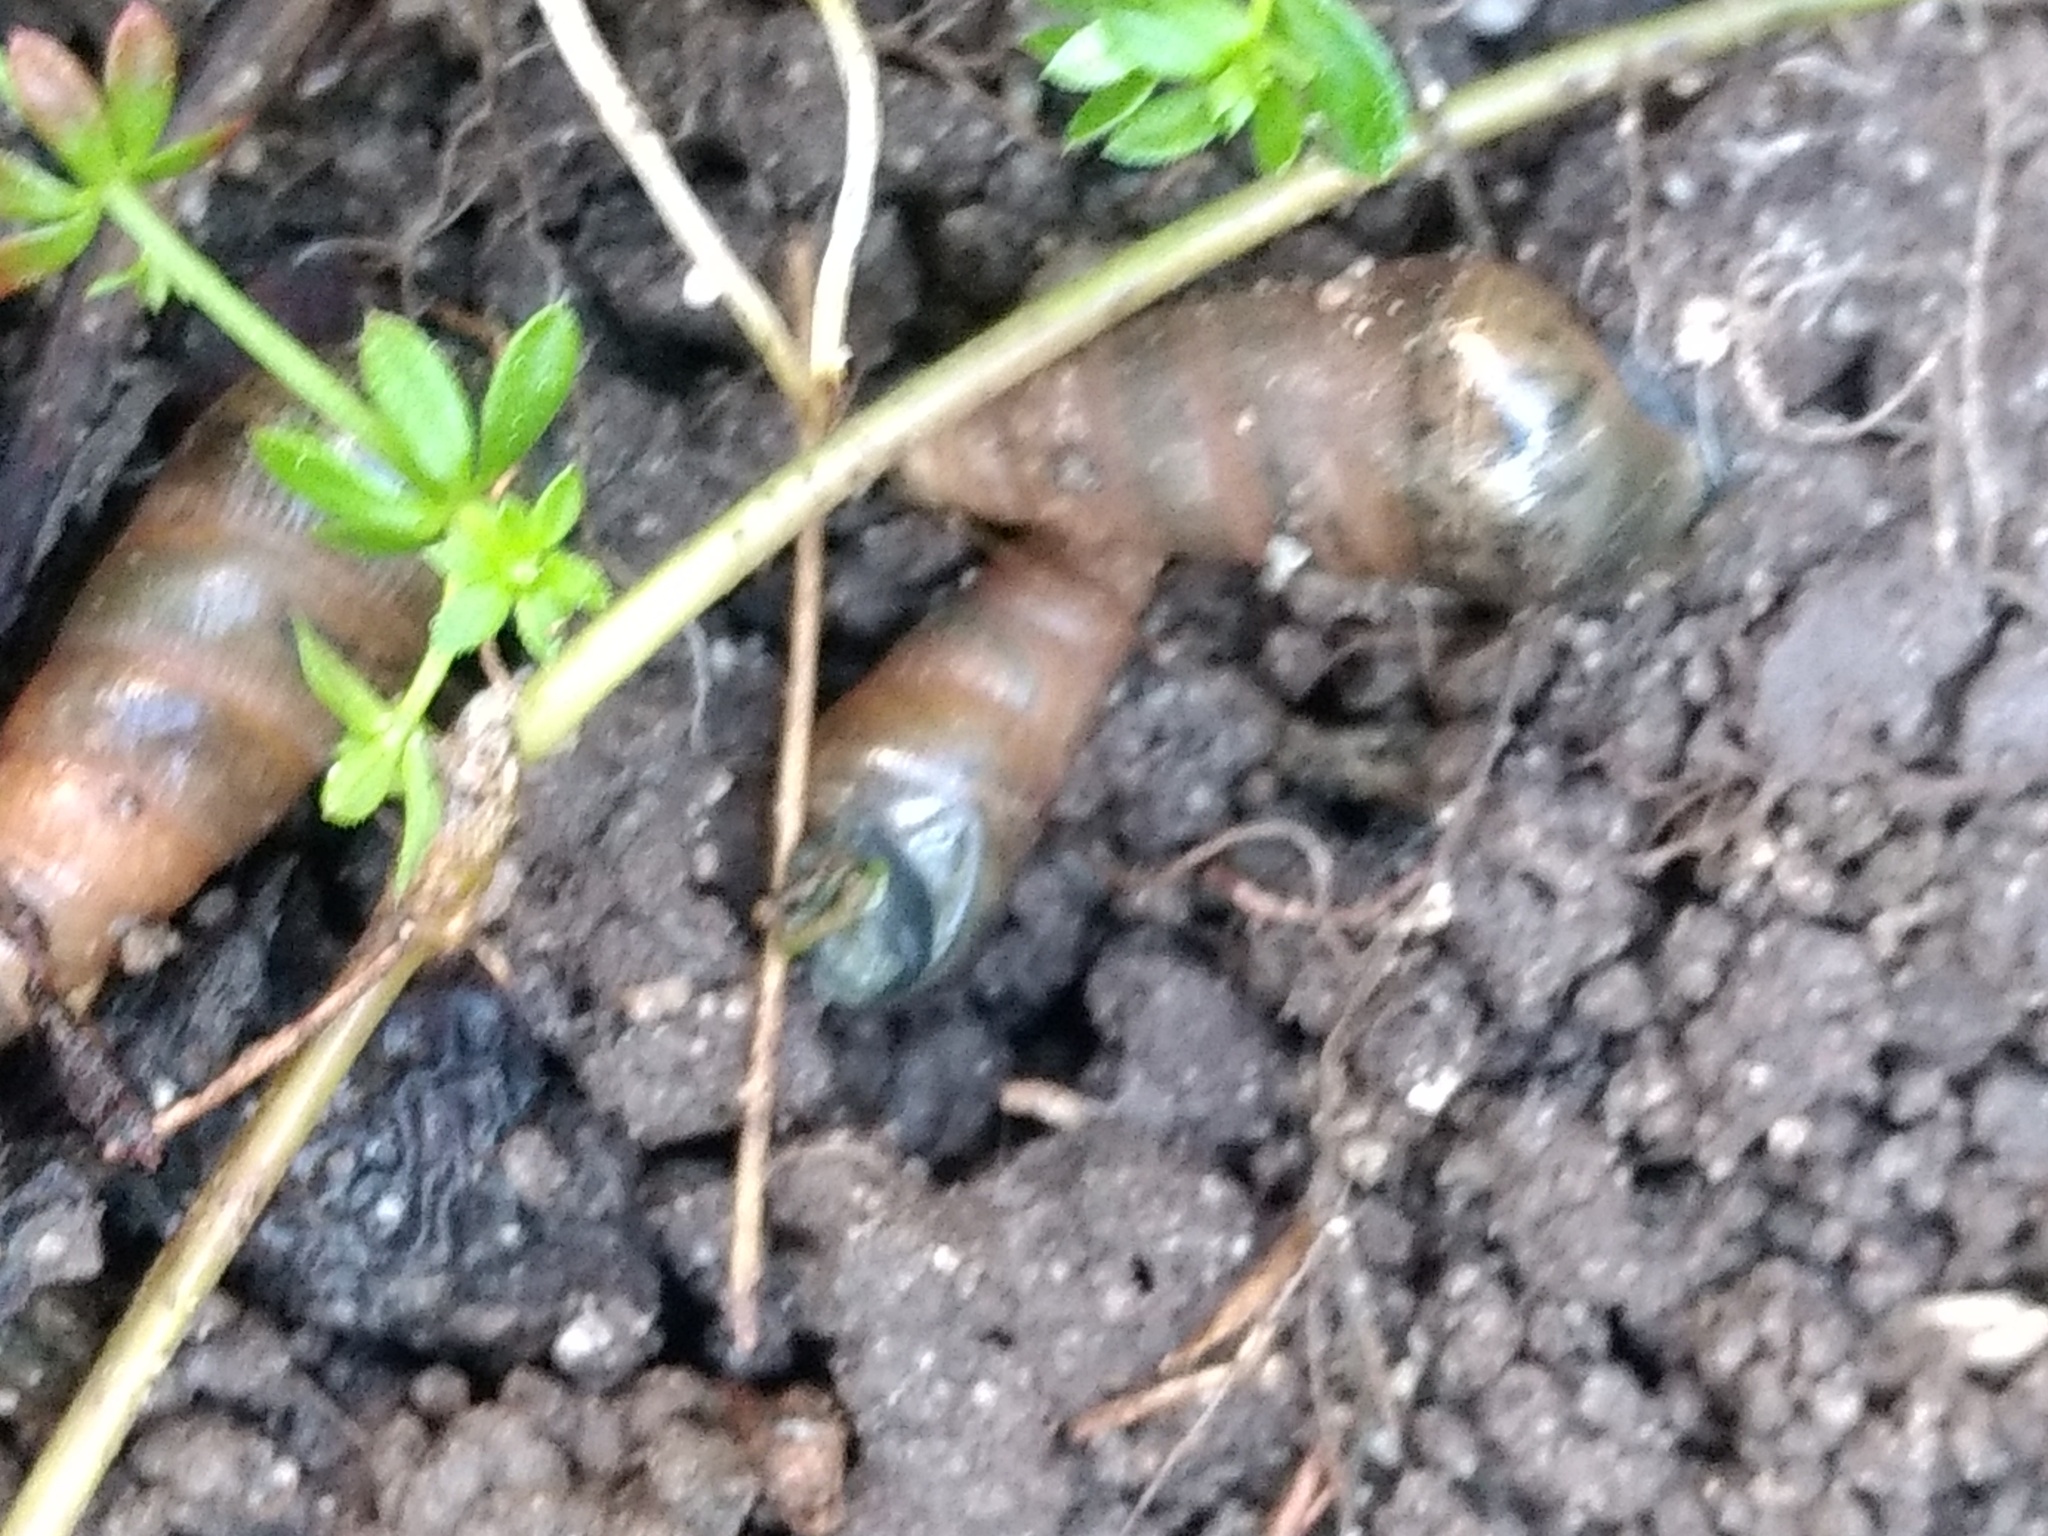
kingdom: Animalia
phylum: Mollusca
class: Gastropoda
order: Stylommatophora
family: Achatinidae
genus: Rumina
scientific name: Rumina decollata
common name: Decollate snail
